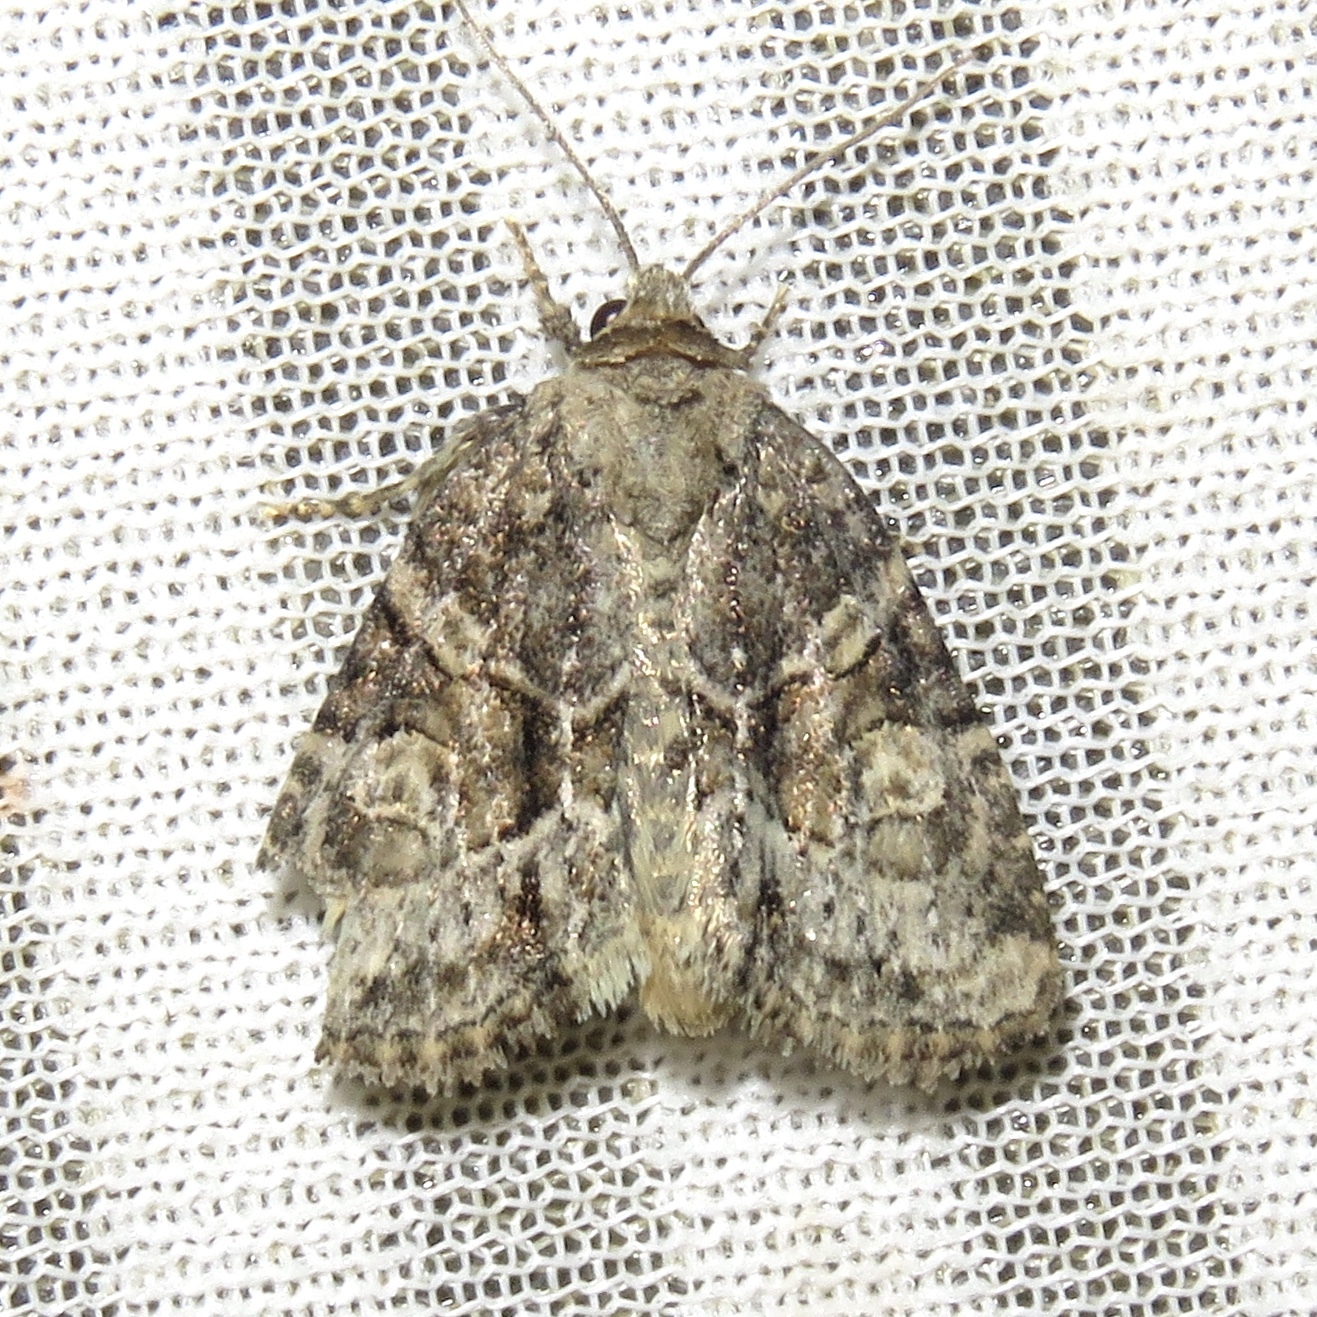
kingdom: Animalia
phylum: Arthropoda
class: Insecta
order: Lepidoptera
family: Noctuidae
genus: Neoligia
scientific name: Neoligia exhausta
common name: Exhausted brocade
